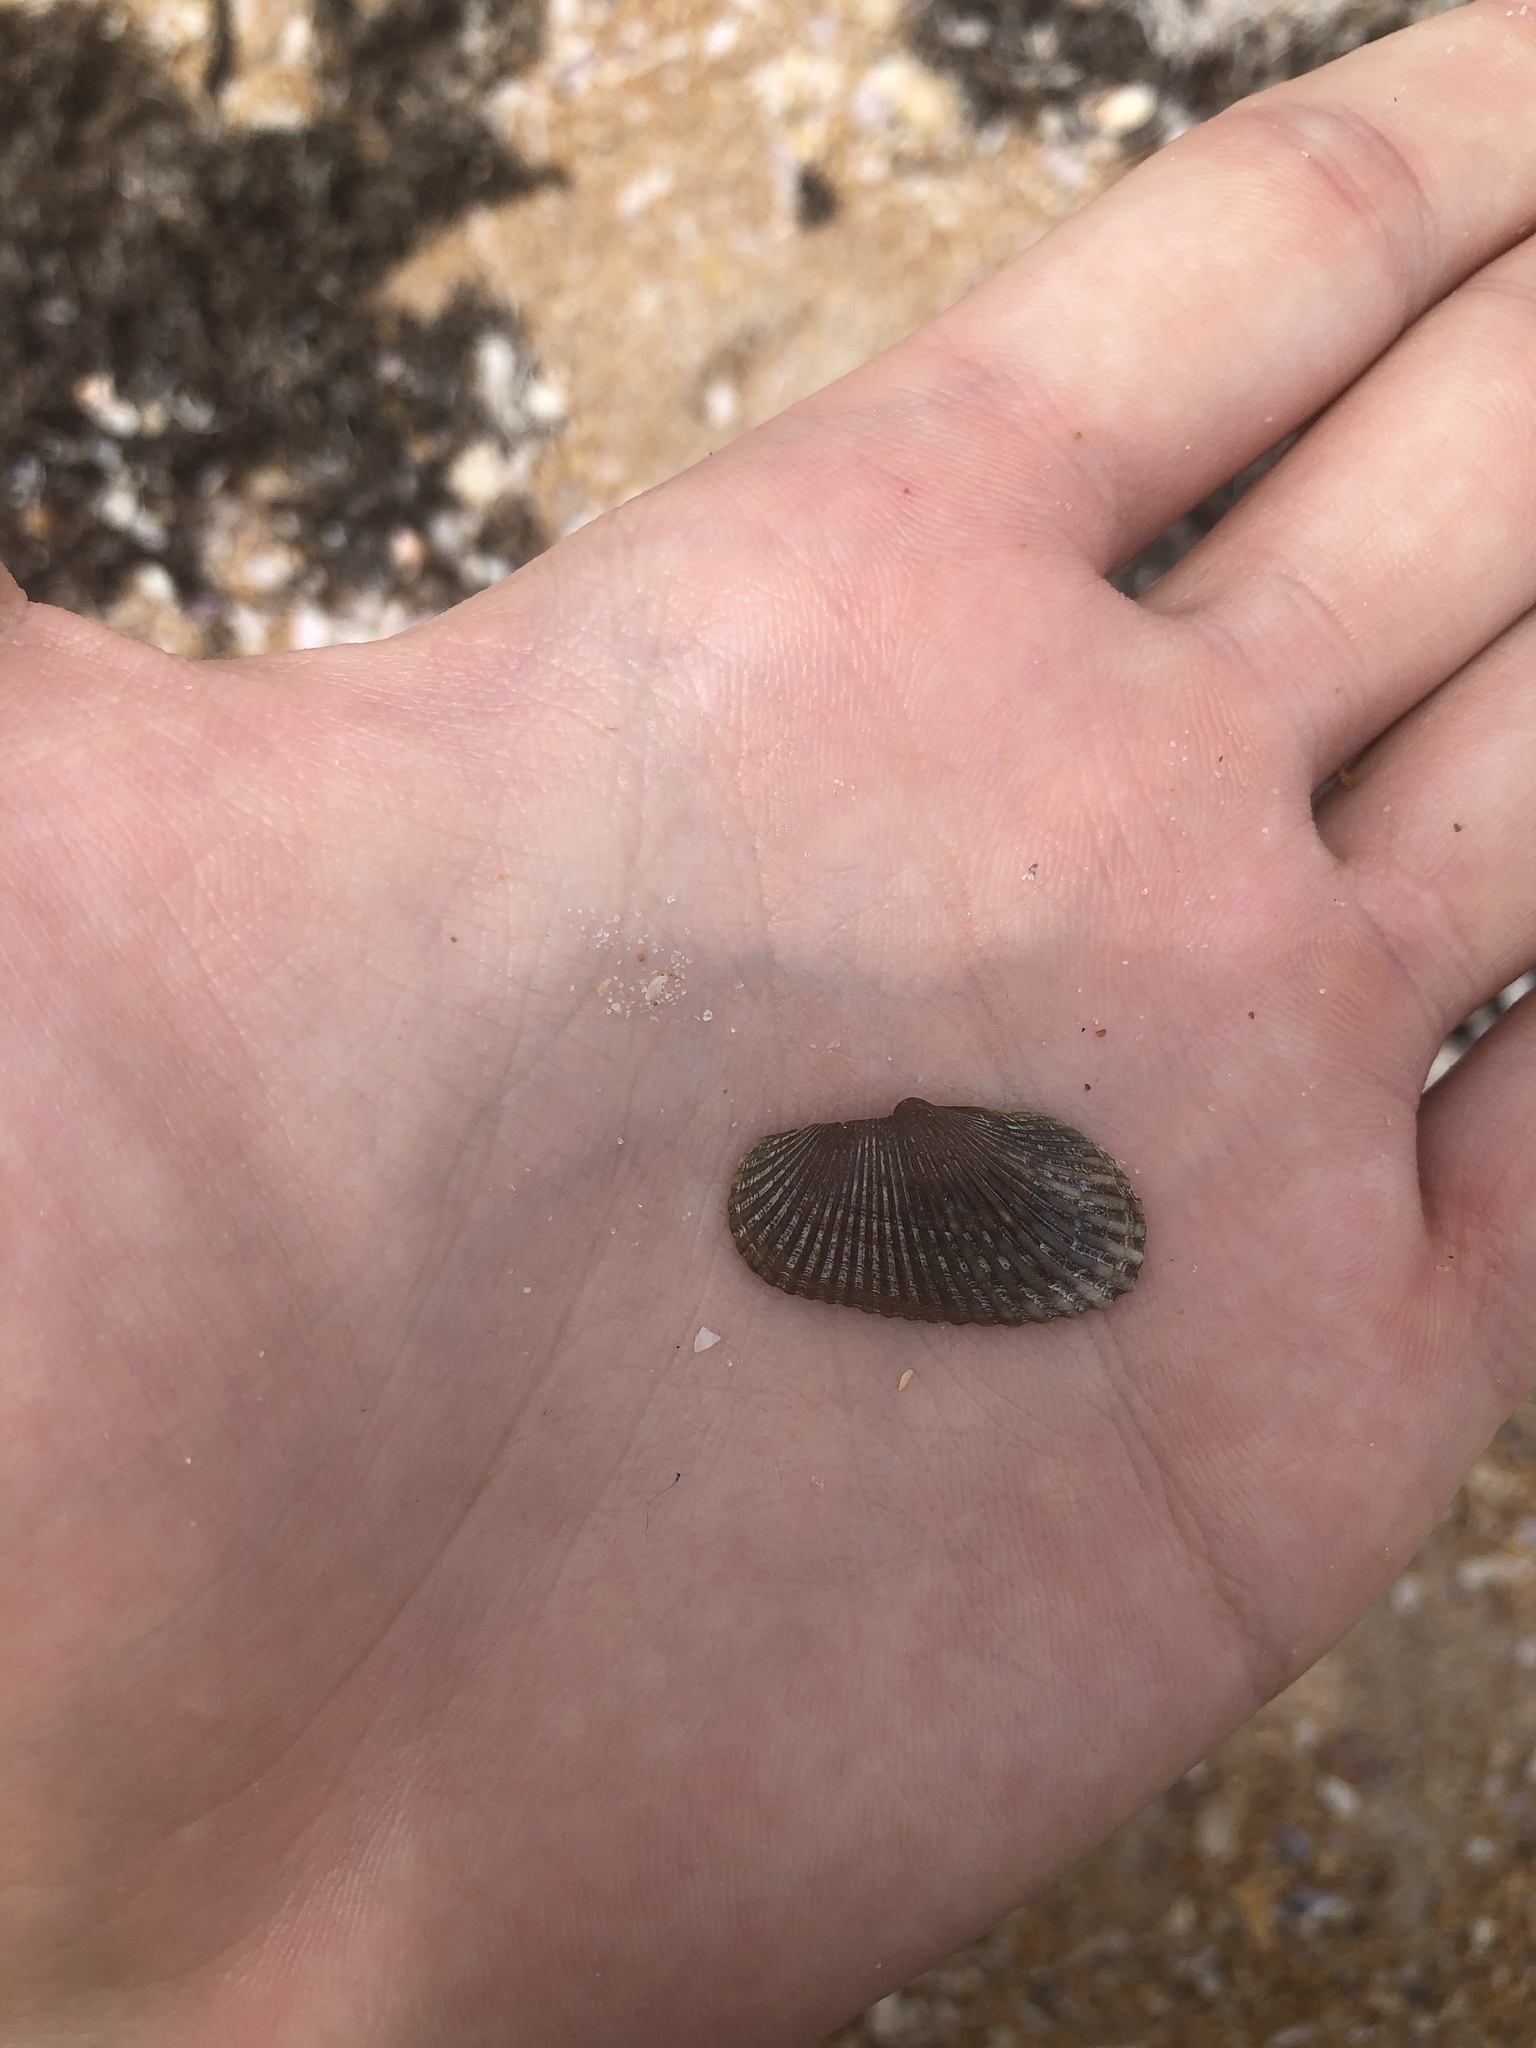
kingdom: Animalia
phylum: Mollusca
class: Bivalvia
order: Arcida
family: Arcidae
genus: Anadara
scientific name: Anadara transversa
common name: Transverse ark
